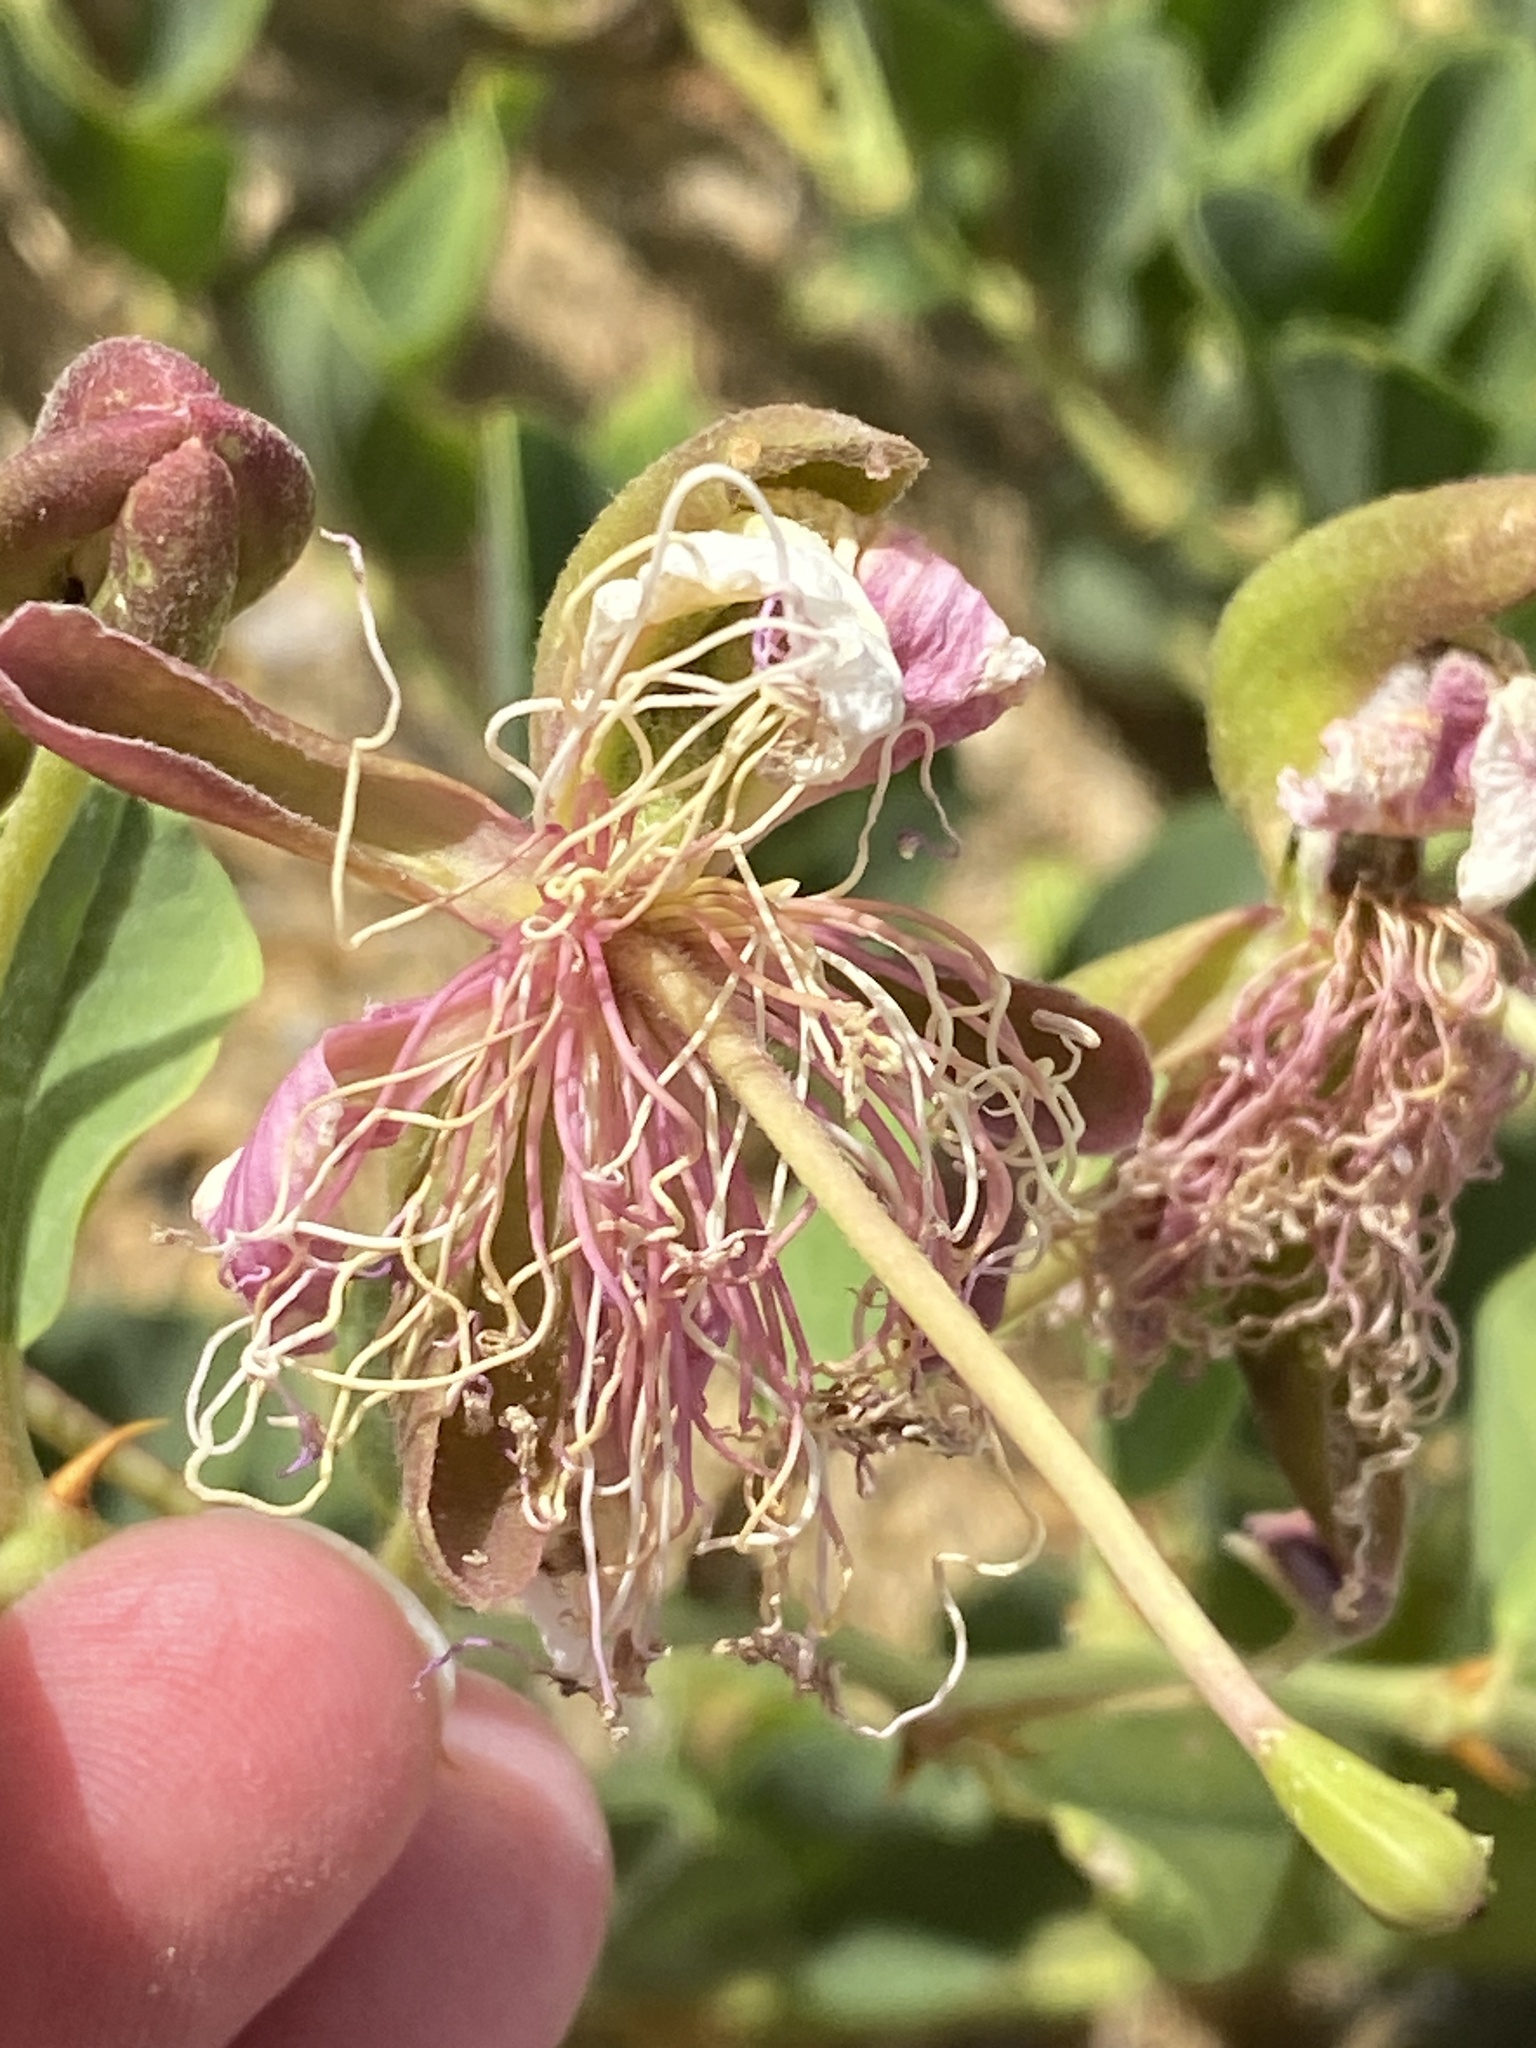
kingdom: Plantae
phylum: Tracheophyta
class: Magnoliopsida
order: Brassicales
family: Capparaceae
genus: Capparis
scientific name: Capparis spinosa
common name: Caper
